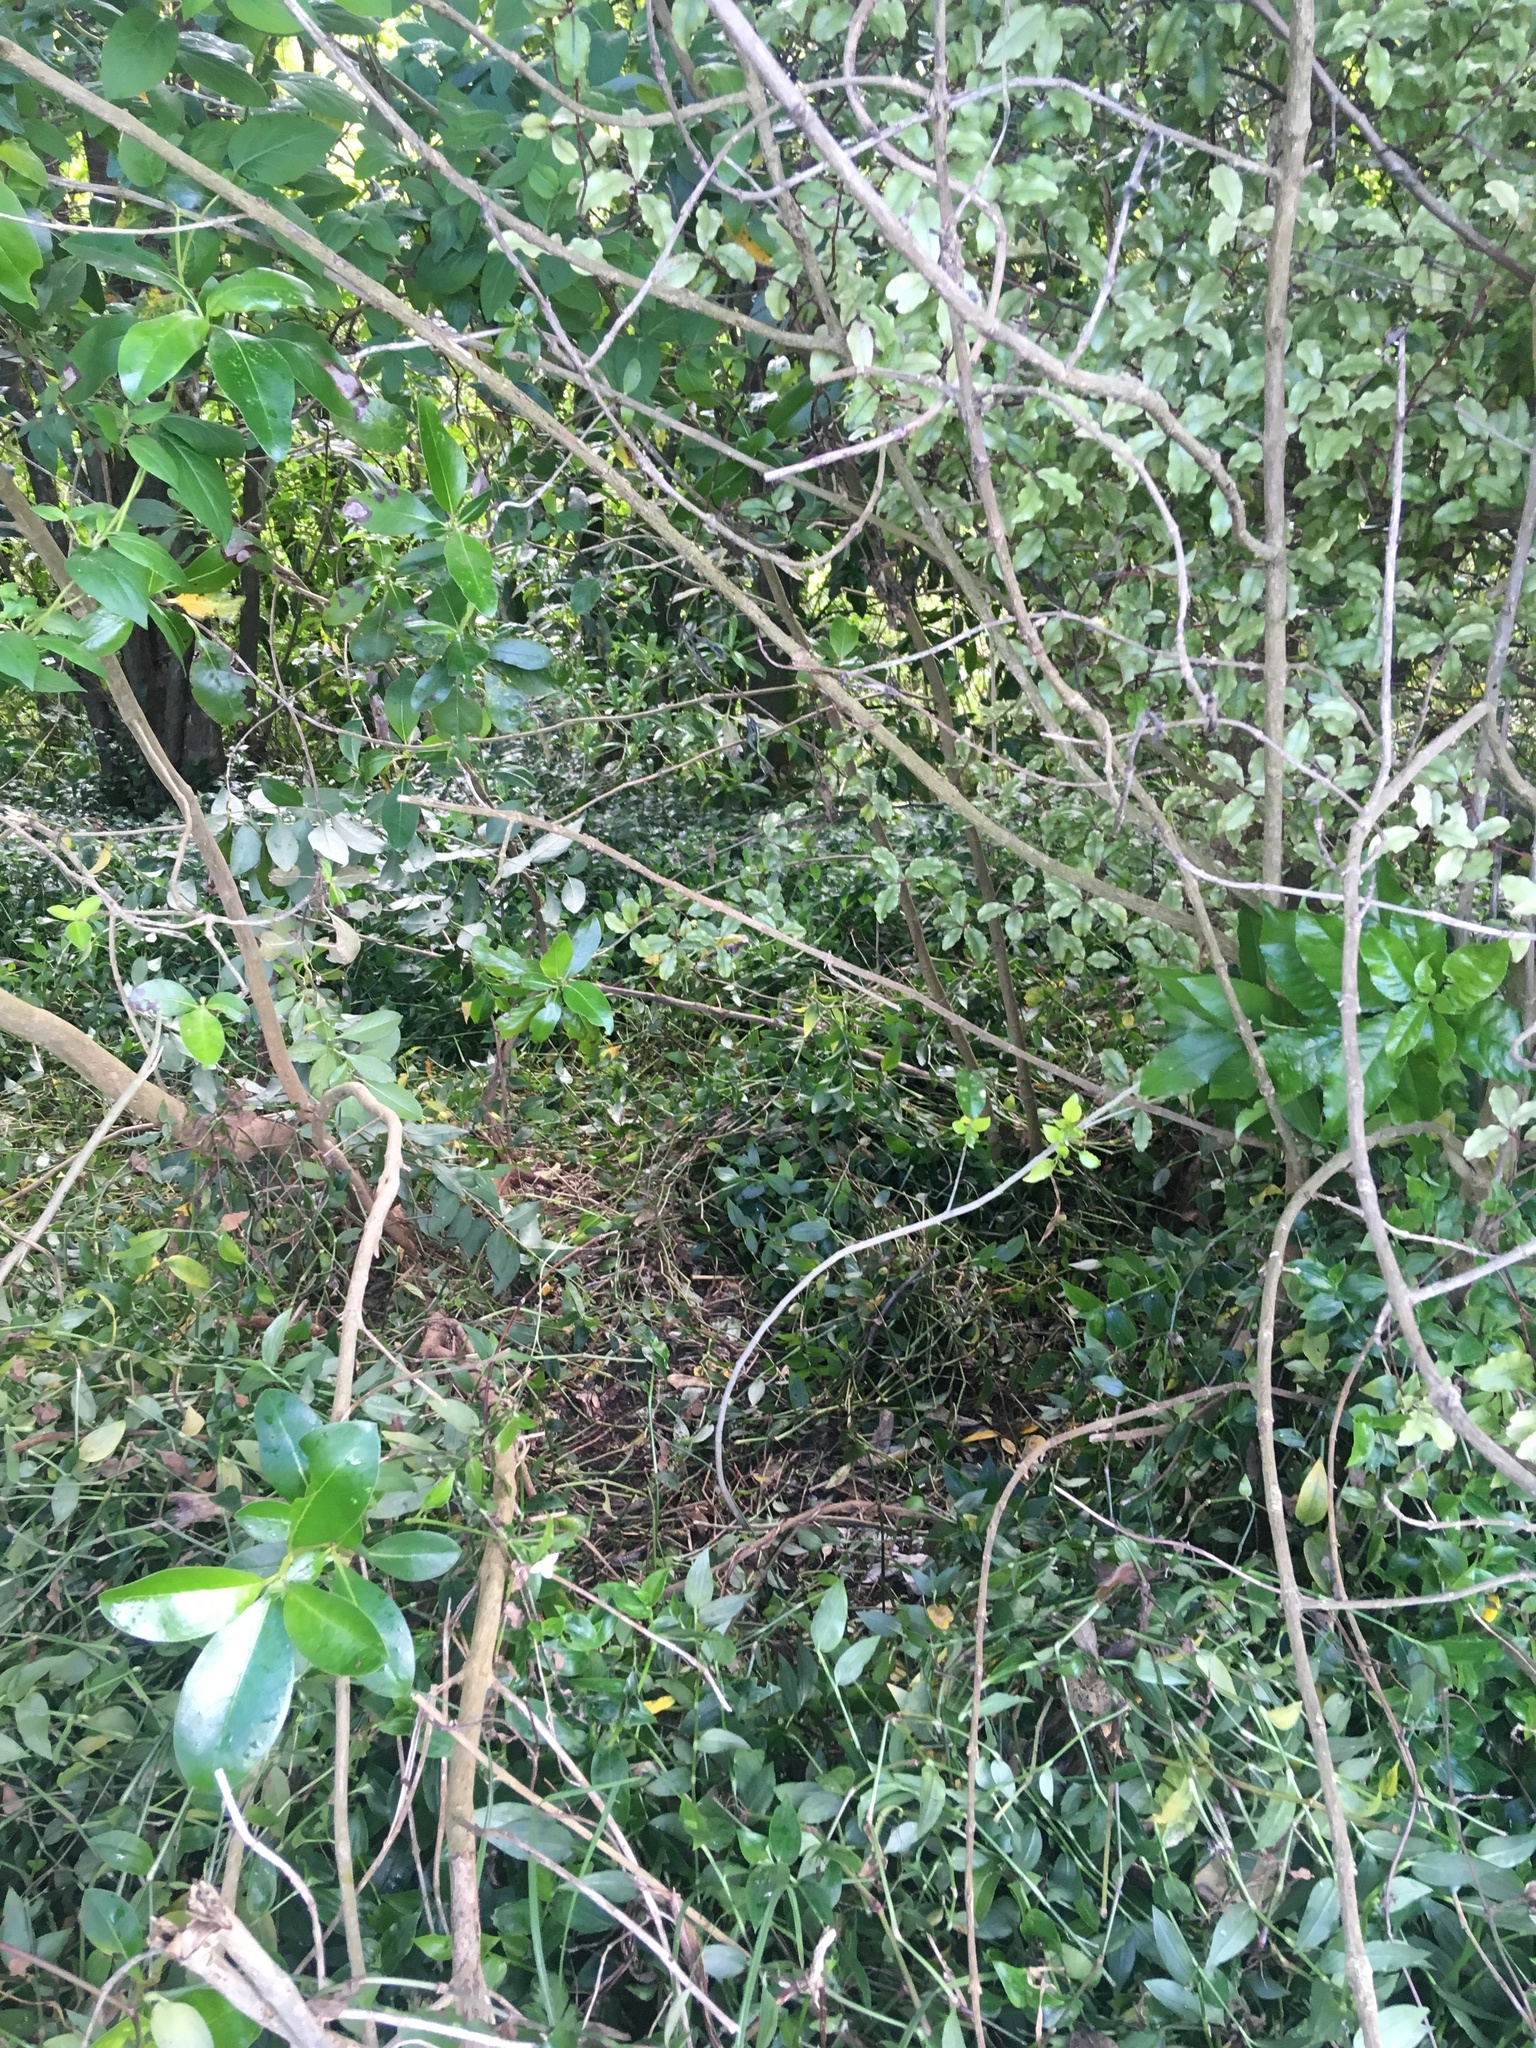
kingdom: Plantae
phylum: Tracheophyta
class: Liliopsida
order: Commelinales
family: Commelinaceae
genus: Tradescantia
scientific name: Tradescantia fluminensis
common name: Wandering-jew
